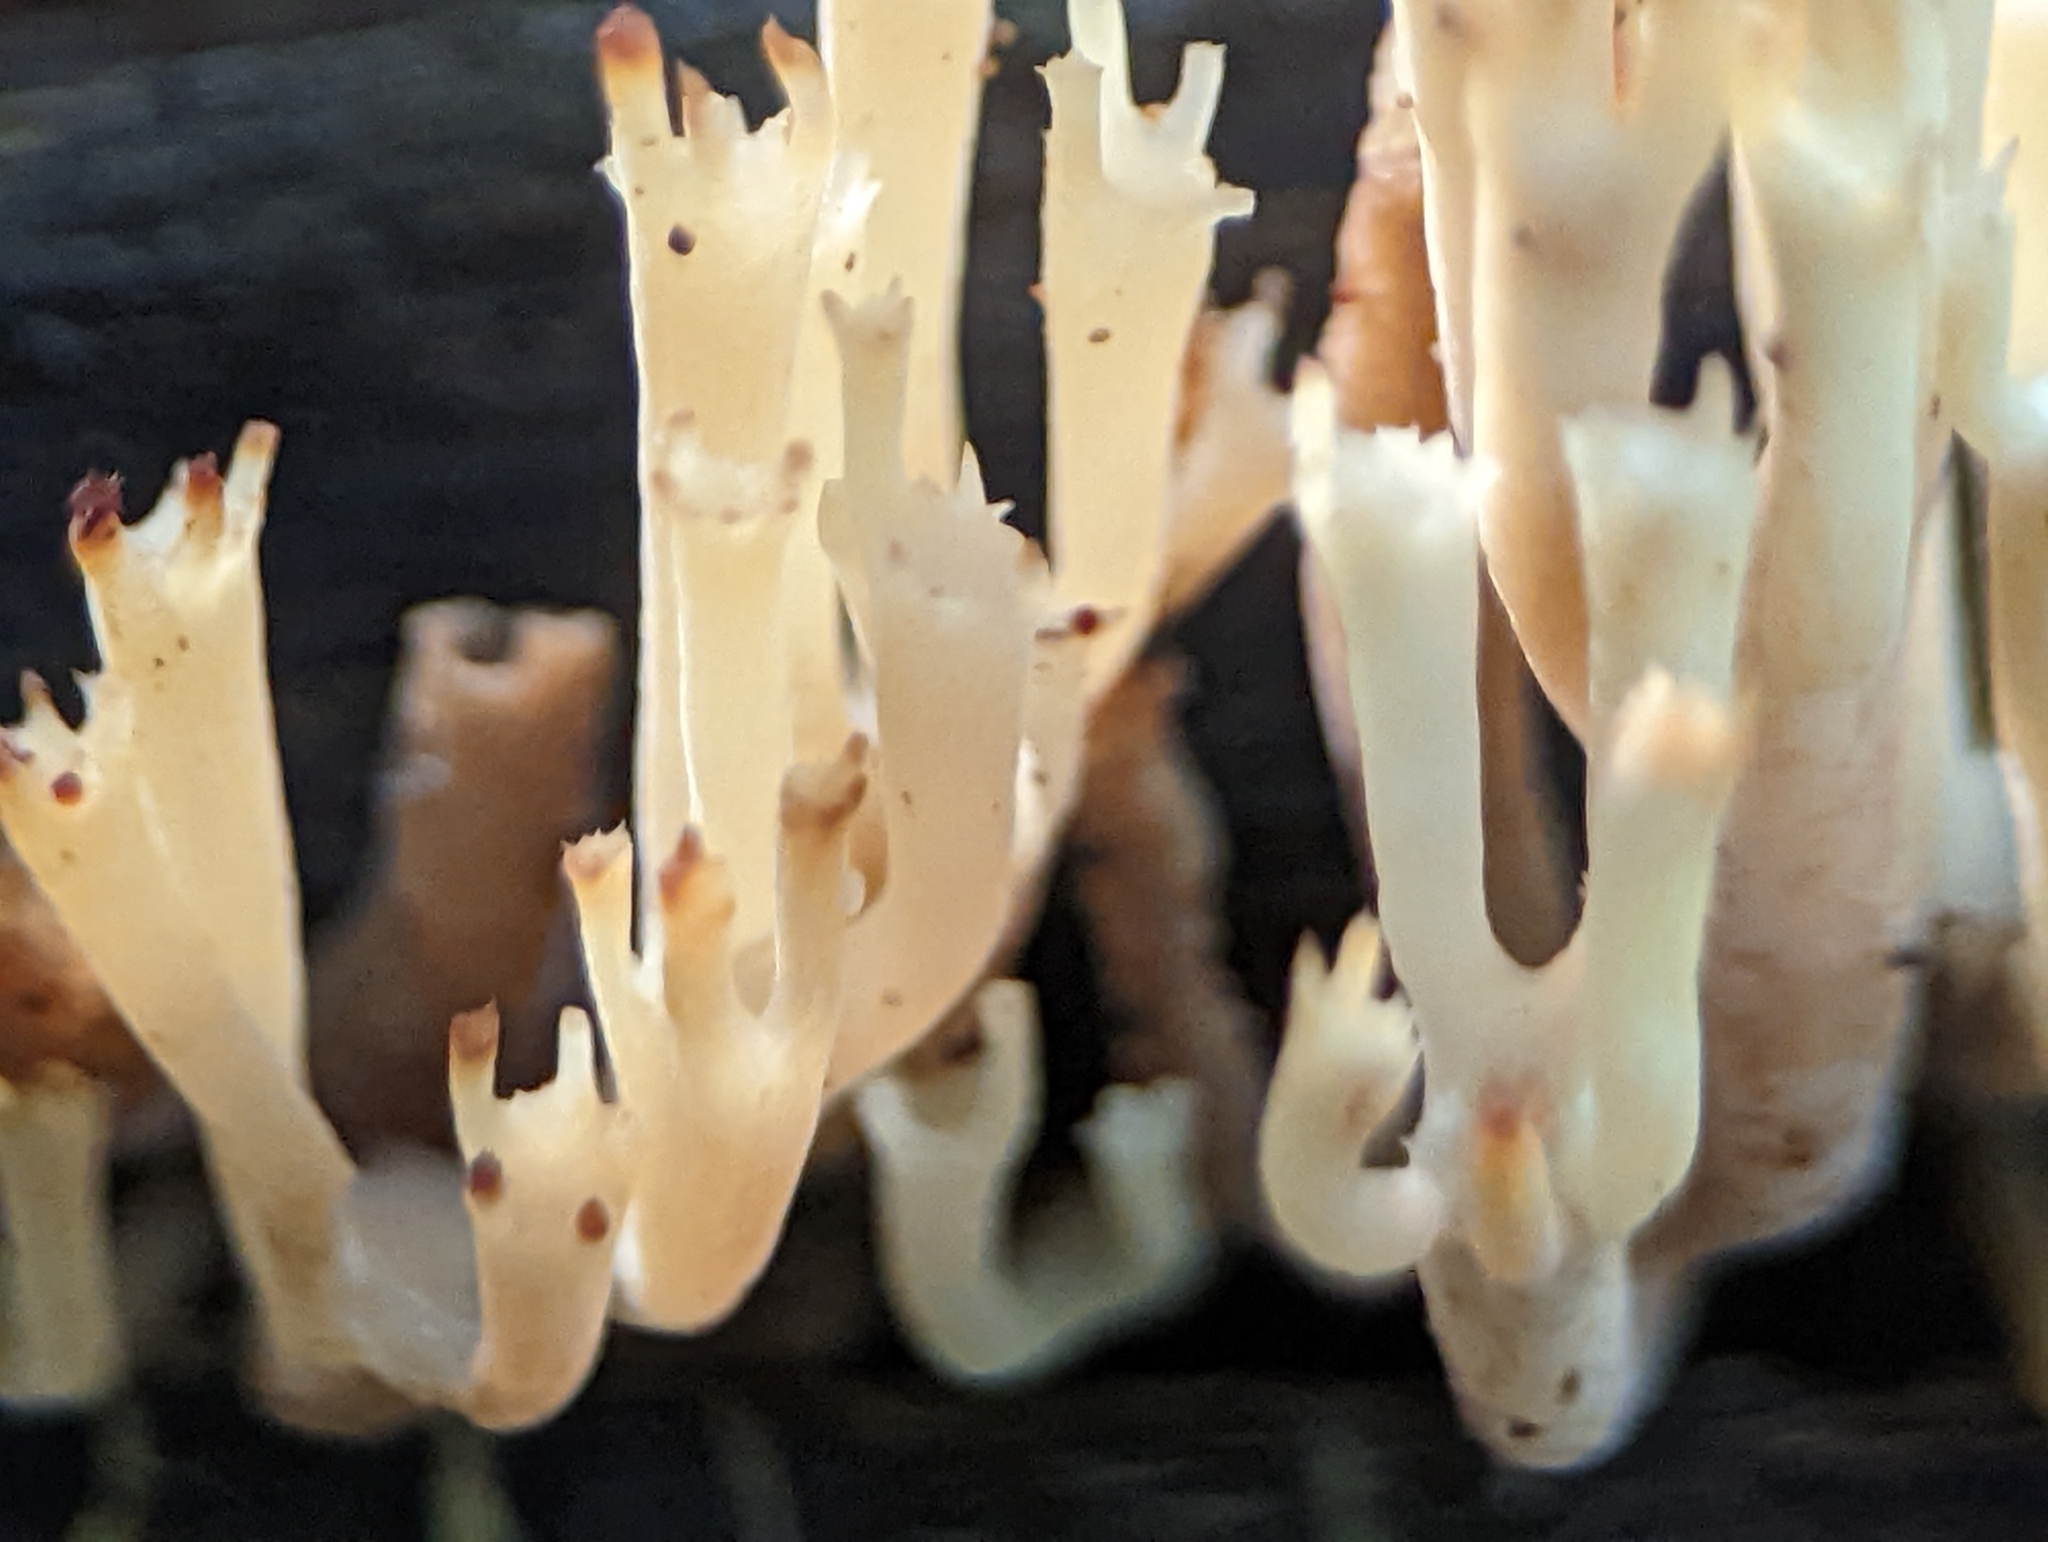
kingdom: Fungi
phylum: Basidiomycota
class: Agaricomycetes
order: Russulales
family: Auriscalpiaceae
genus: Artomyces
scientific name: Artomyces pyxidatus
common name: Crown-tipped coral fungus
